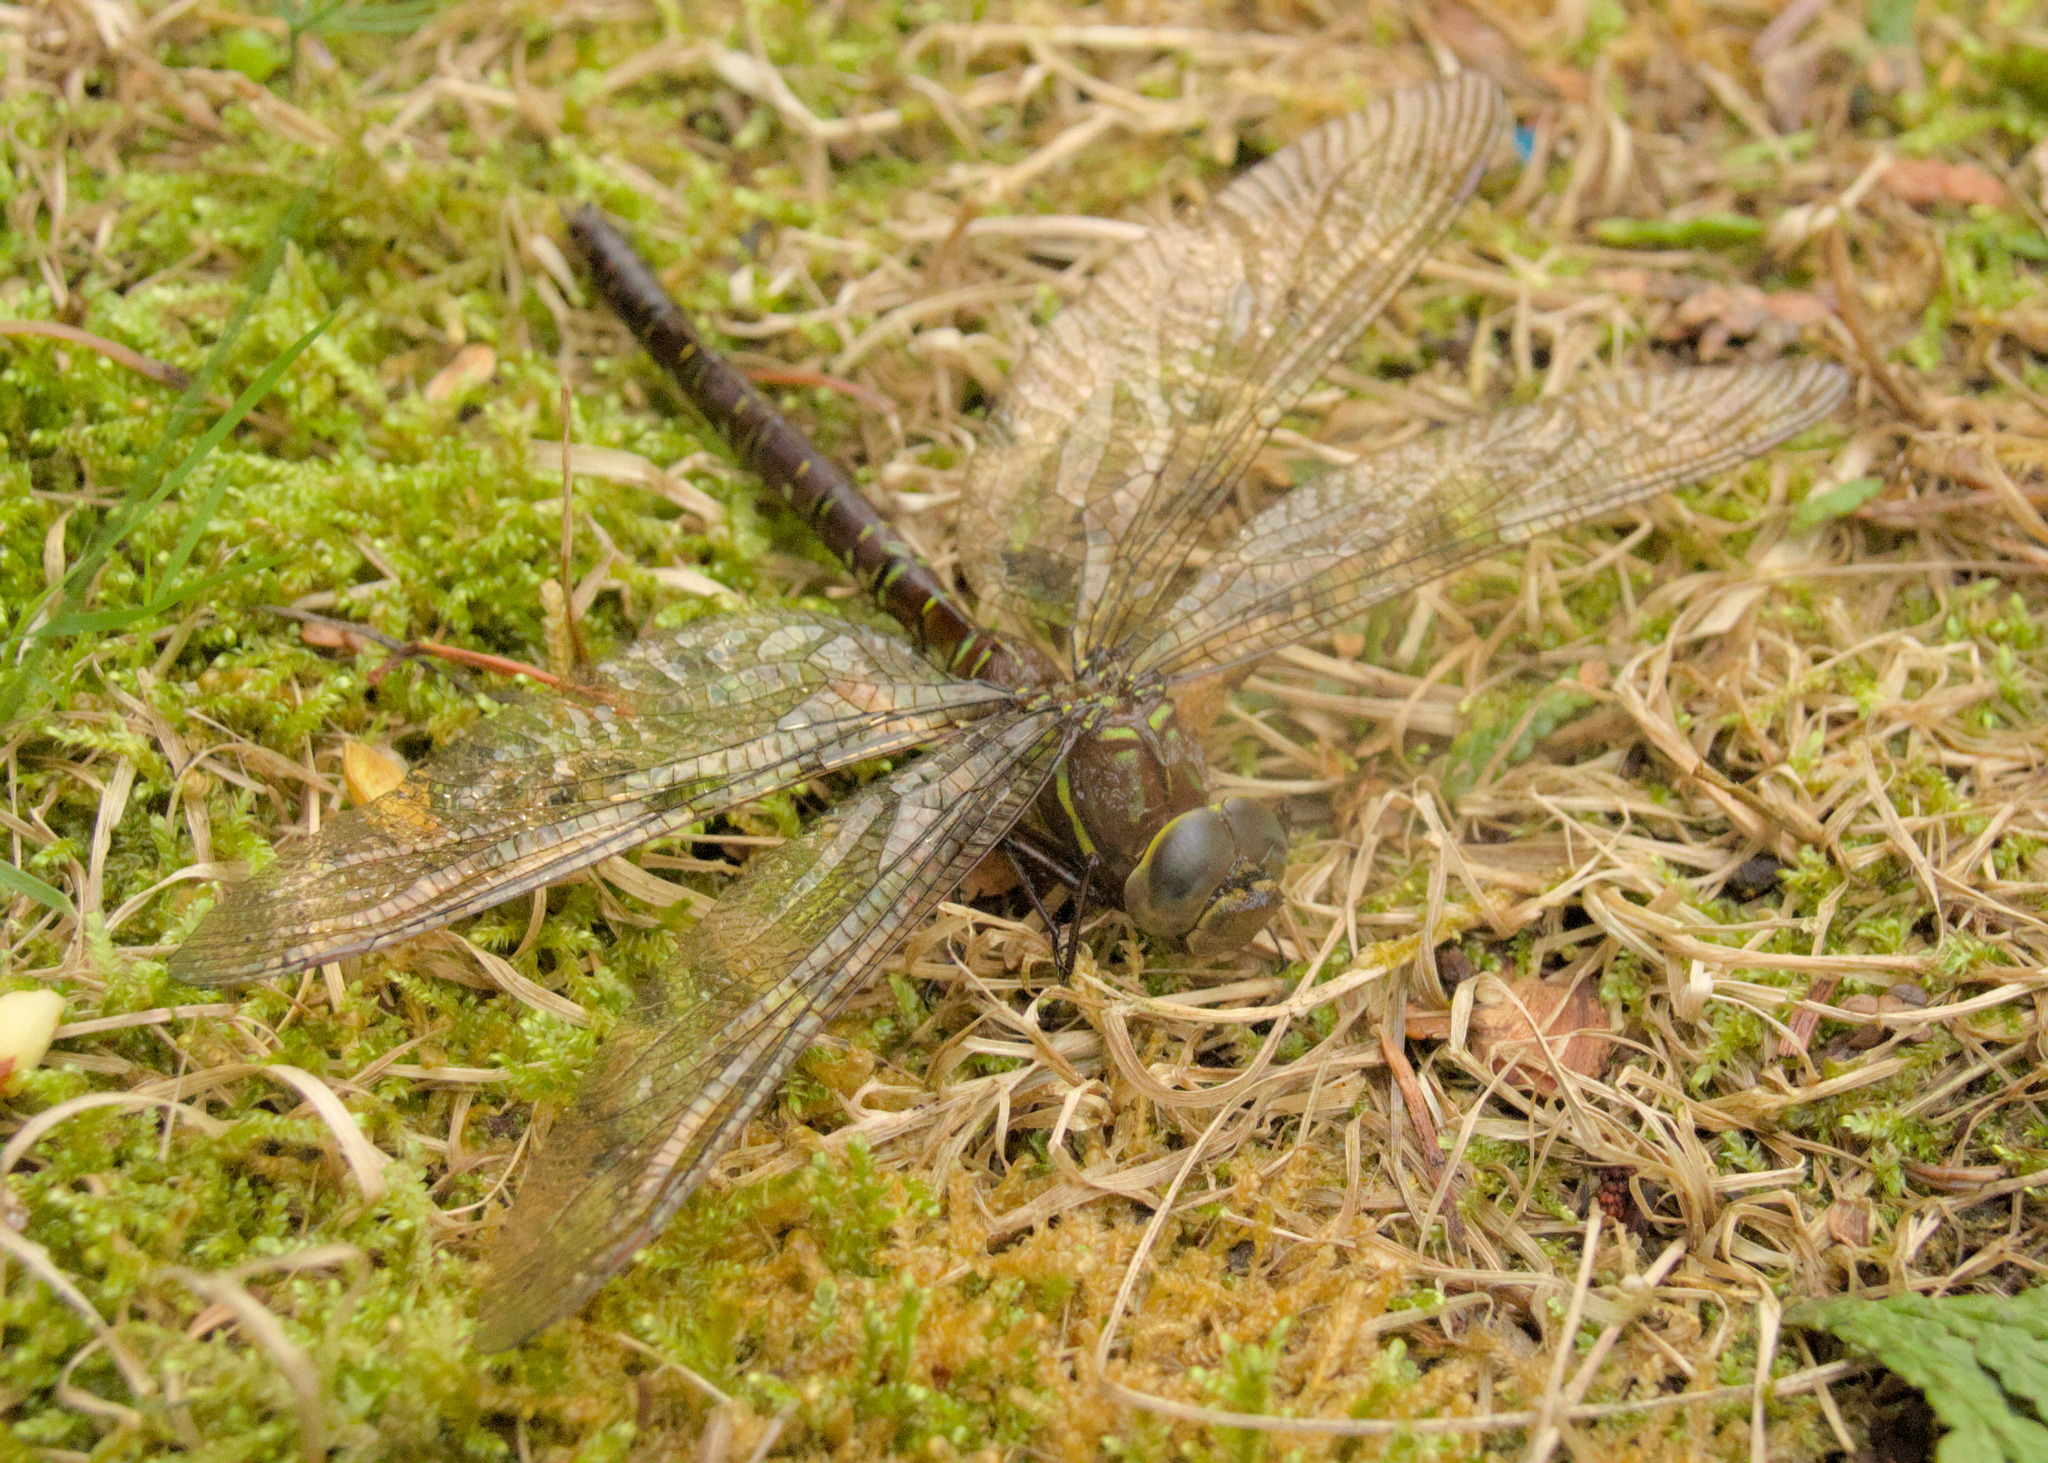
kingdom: Animalia
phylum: Arthropoda
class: Insecta
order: Odonata
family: Aeshnidae
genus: Aeshna
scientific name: Aeshna umbrosa
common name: Shadow darner
